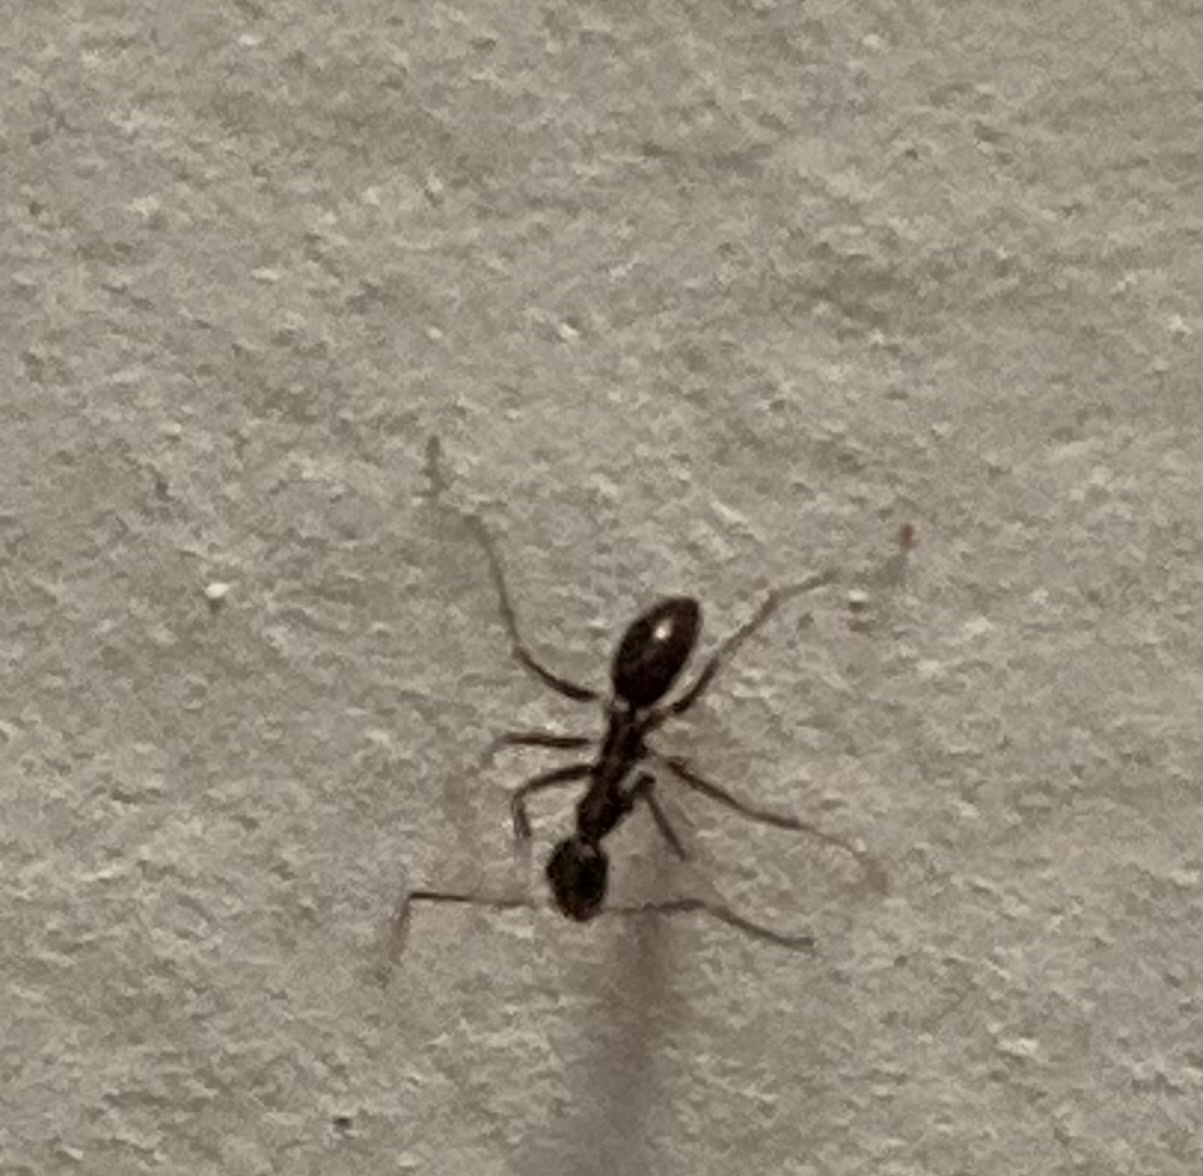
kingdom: Animalia
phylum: Arthropoda
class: Insecta
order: Hymenoptera
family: Formicidae
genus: Paratrechina
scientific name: Paratrechina longicornis
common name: Longhorned crazy ant
